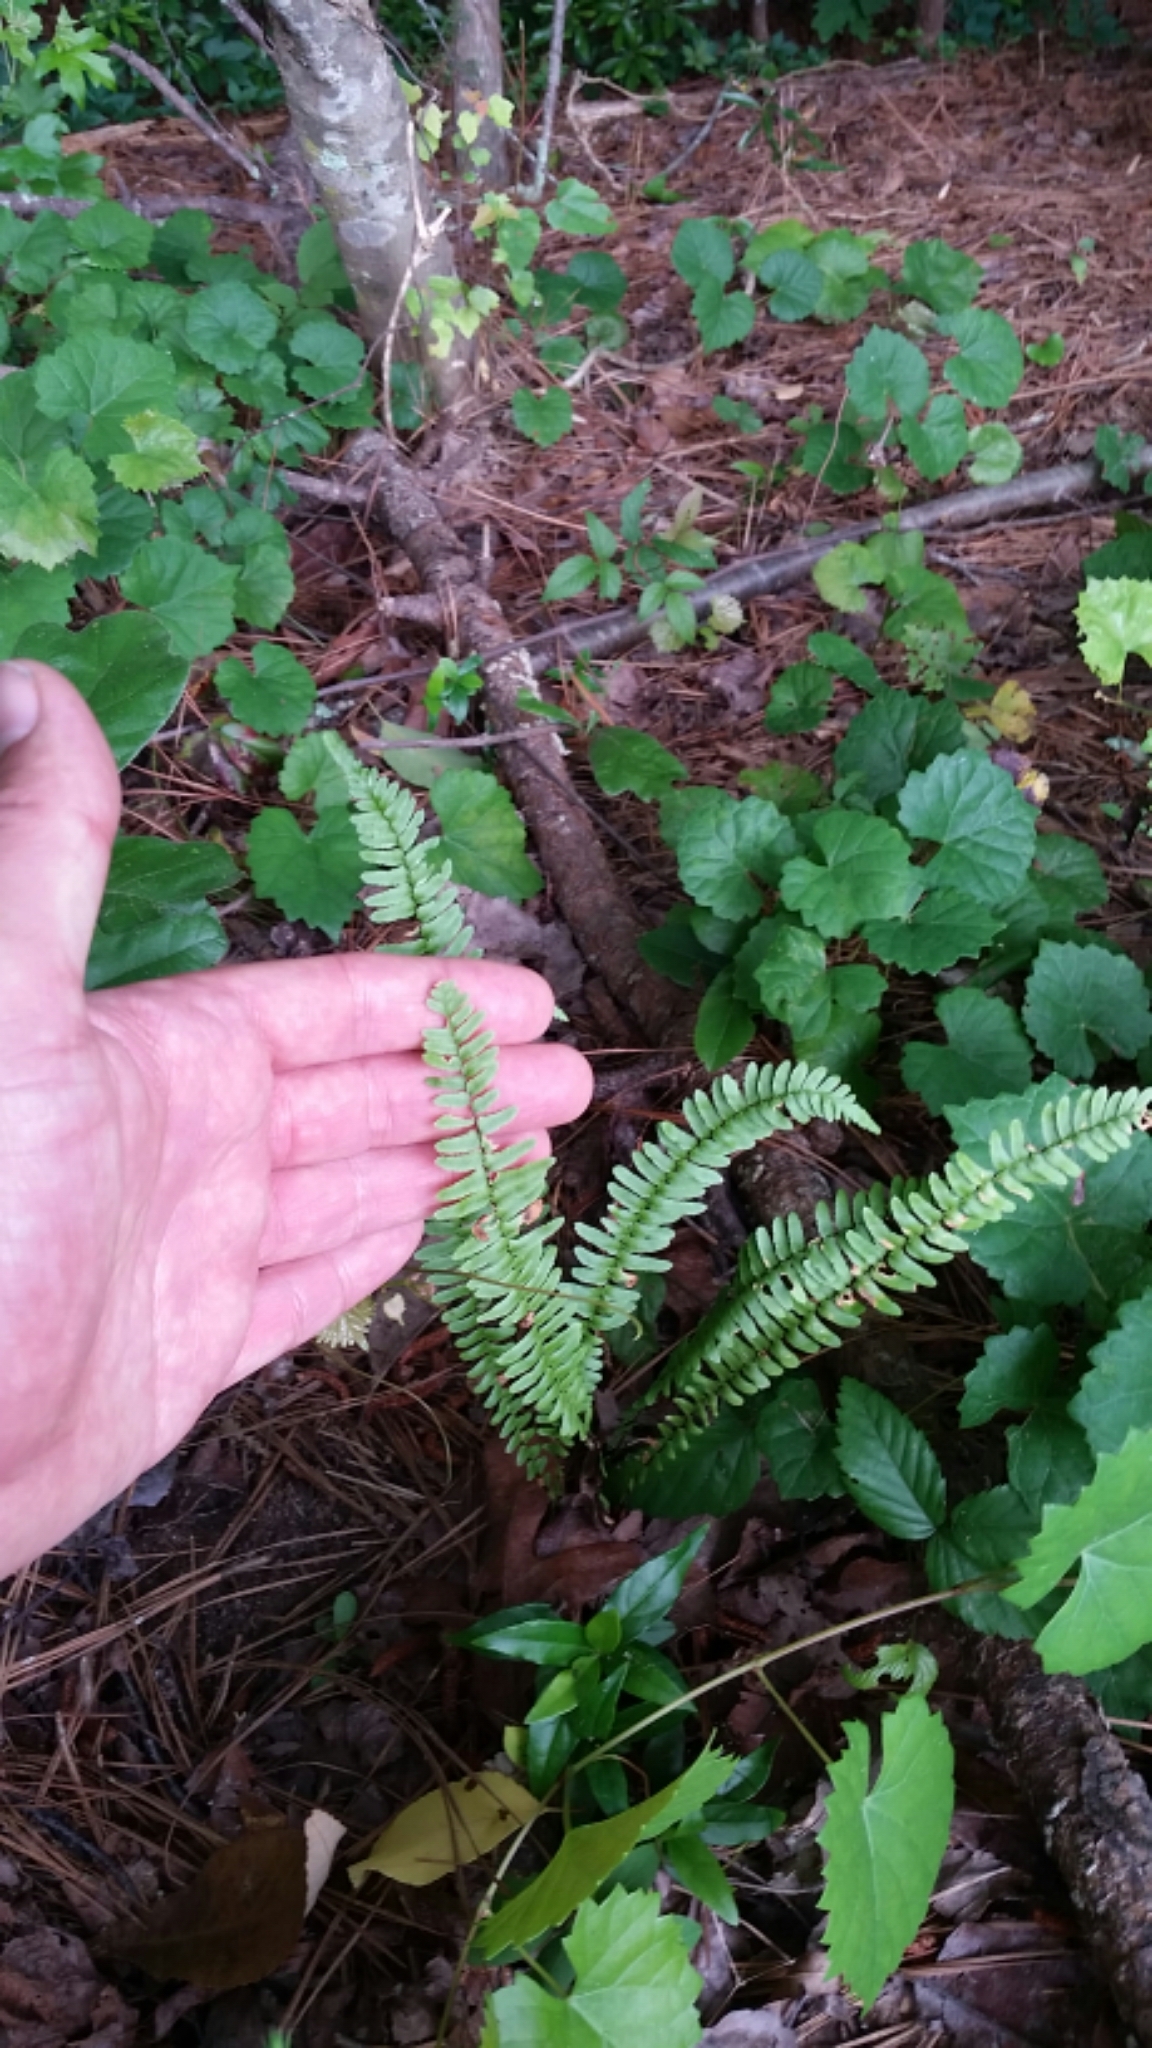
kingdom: Plantae
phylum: Tracheophyta
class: Polypodiopsida
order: Polypodiales
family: Aspleniaceae
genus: Asplenium
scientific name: Asplenium platyneuron
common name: Ebony spleenwort
